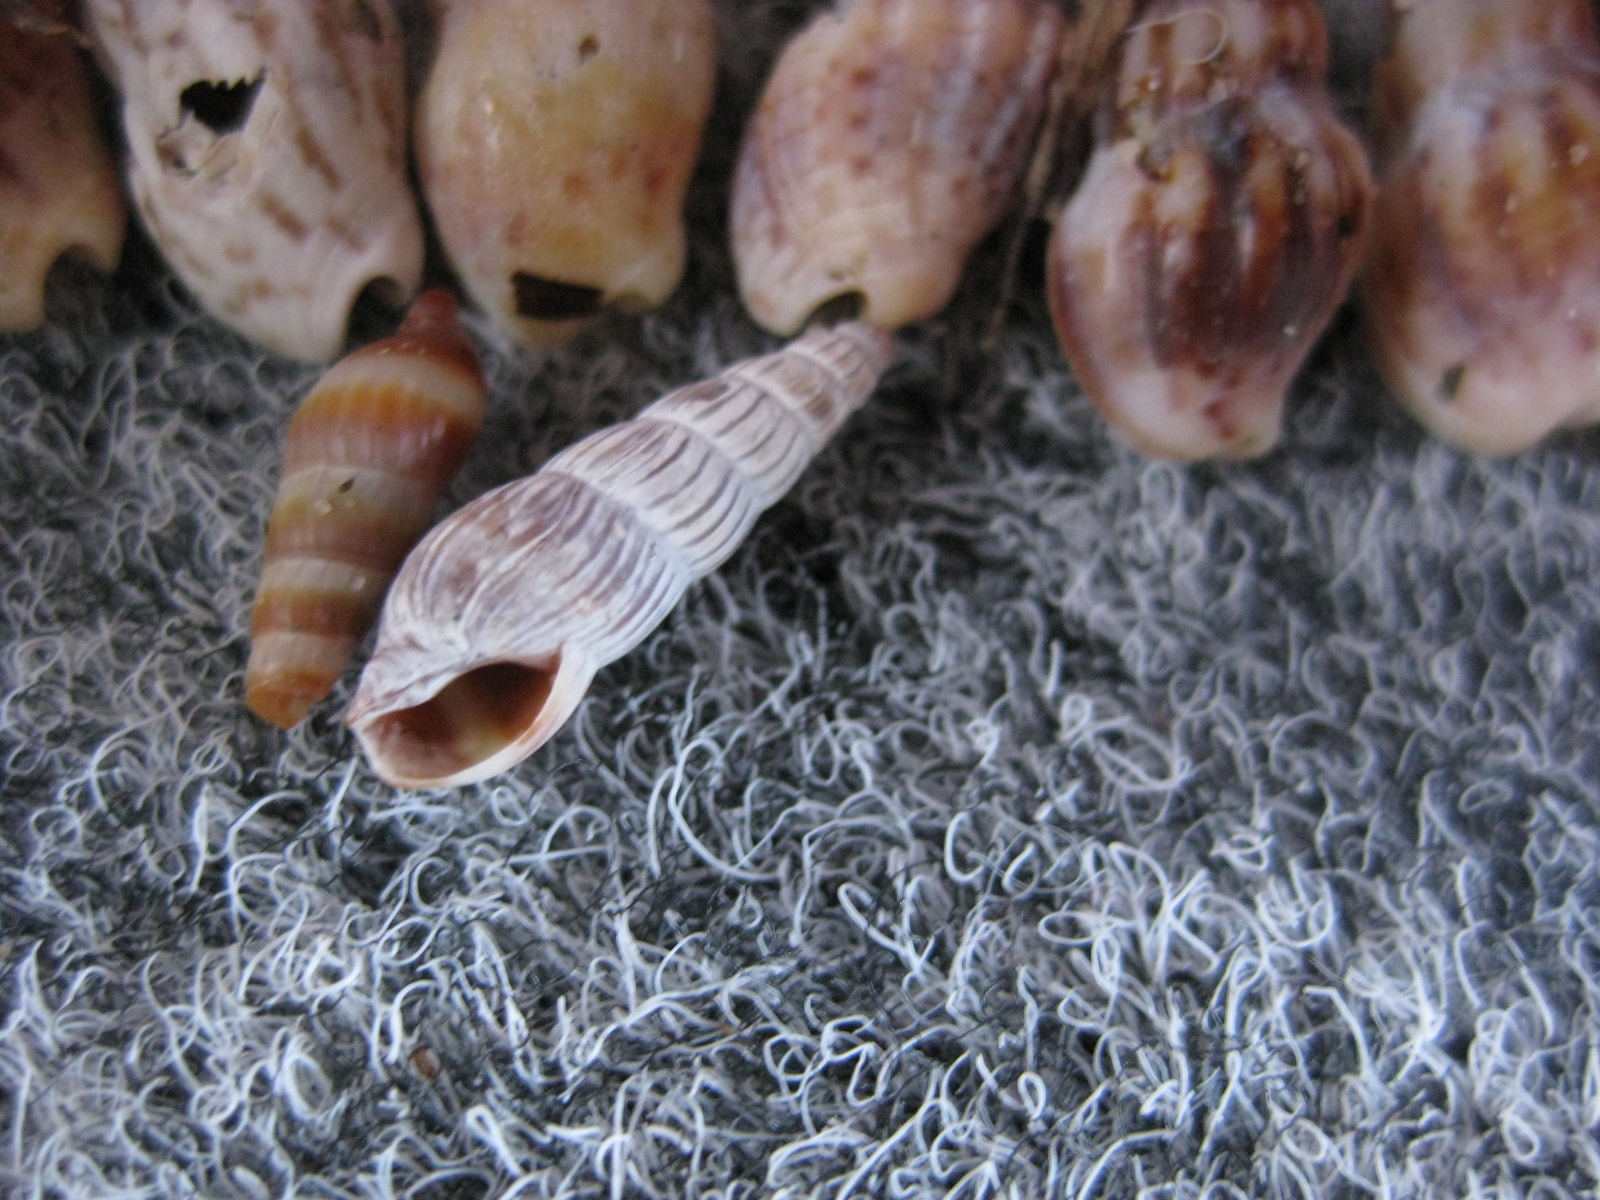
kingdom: Animalia
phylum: Mollusca
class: Gastropoda
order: Neogastropoda
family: Terebridae
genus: Duplicaria
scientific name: Duplicaria tristis
